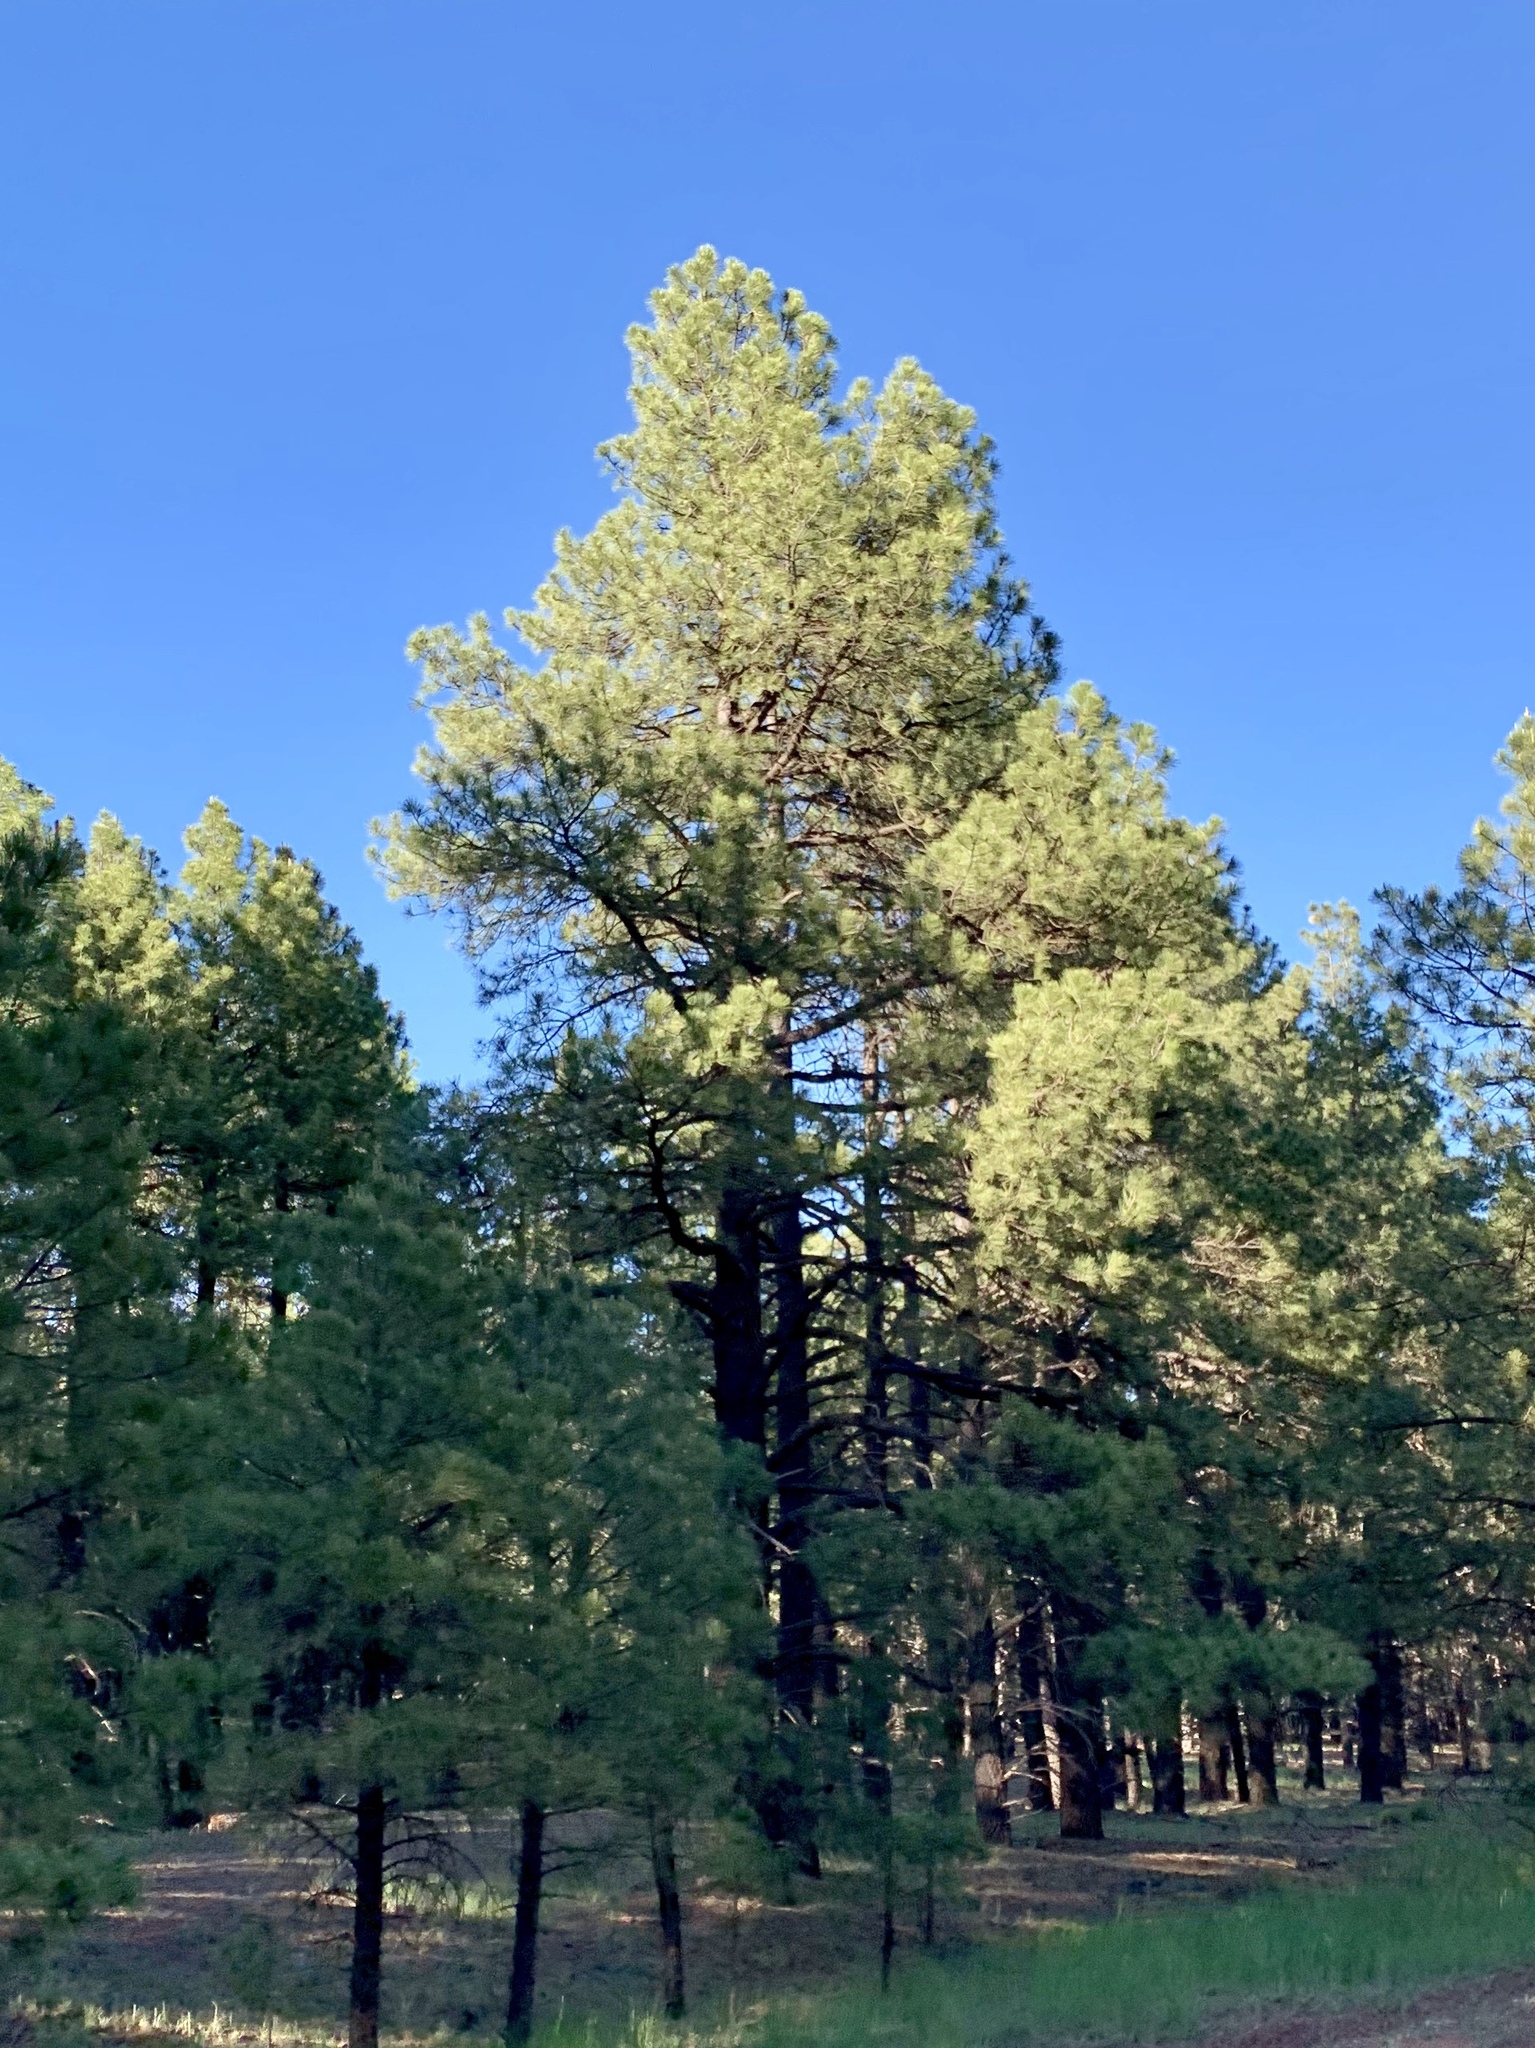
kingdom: Plantae
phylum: Tracheophyta
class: Pinopsida
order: Pinales
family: Pinaceae
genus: Pinus
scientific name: Pinus ponderosa
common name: Western yellow-pine
